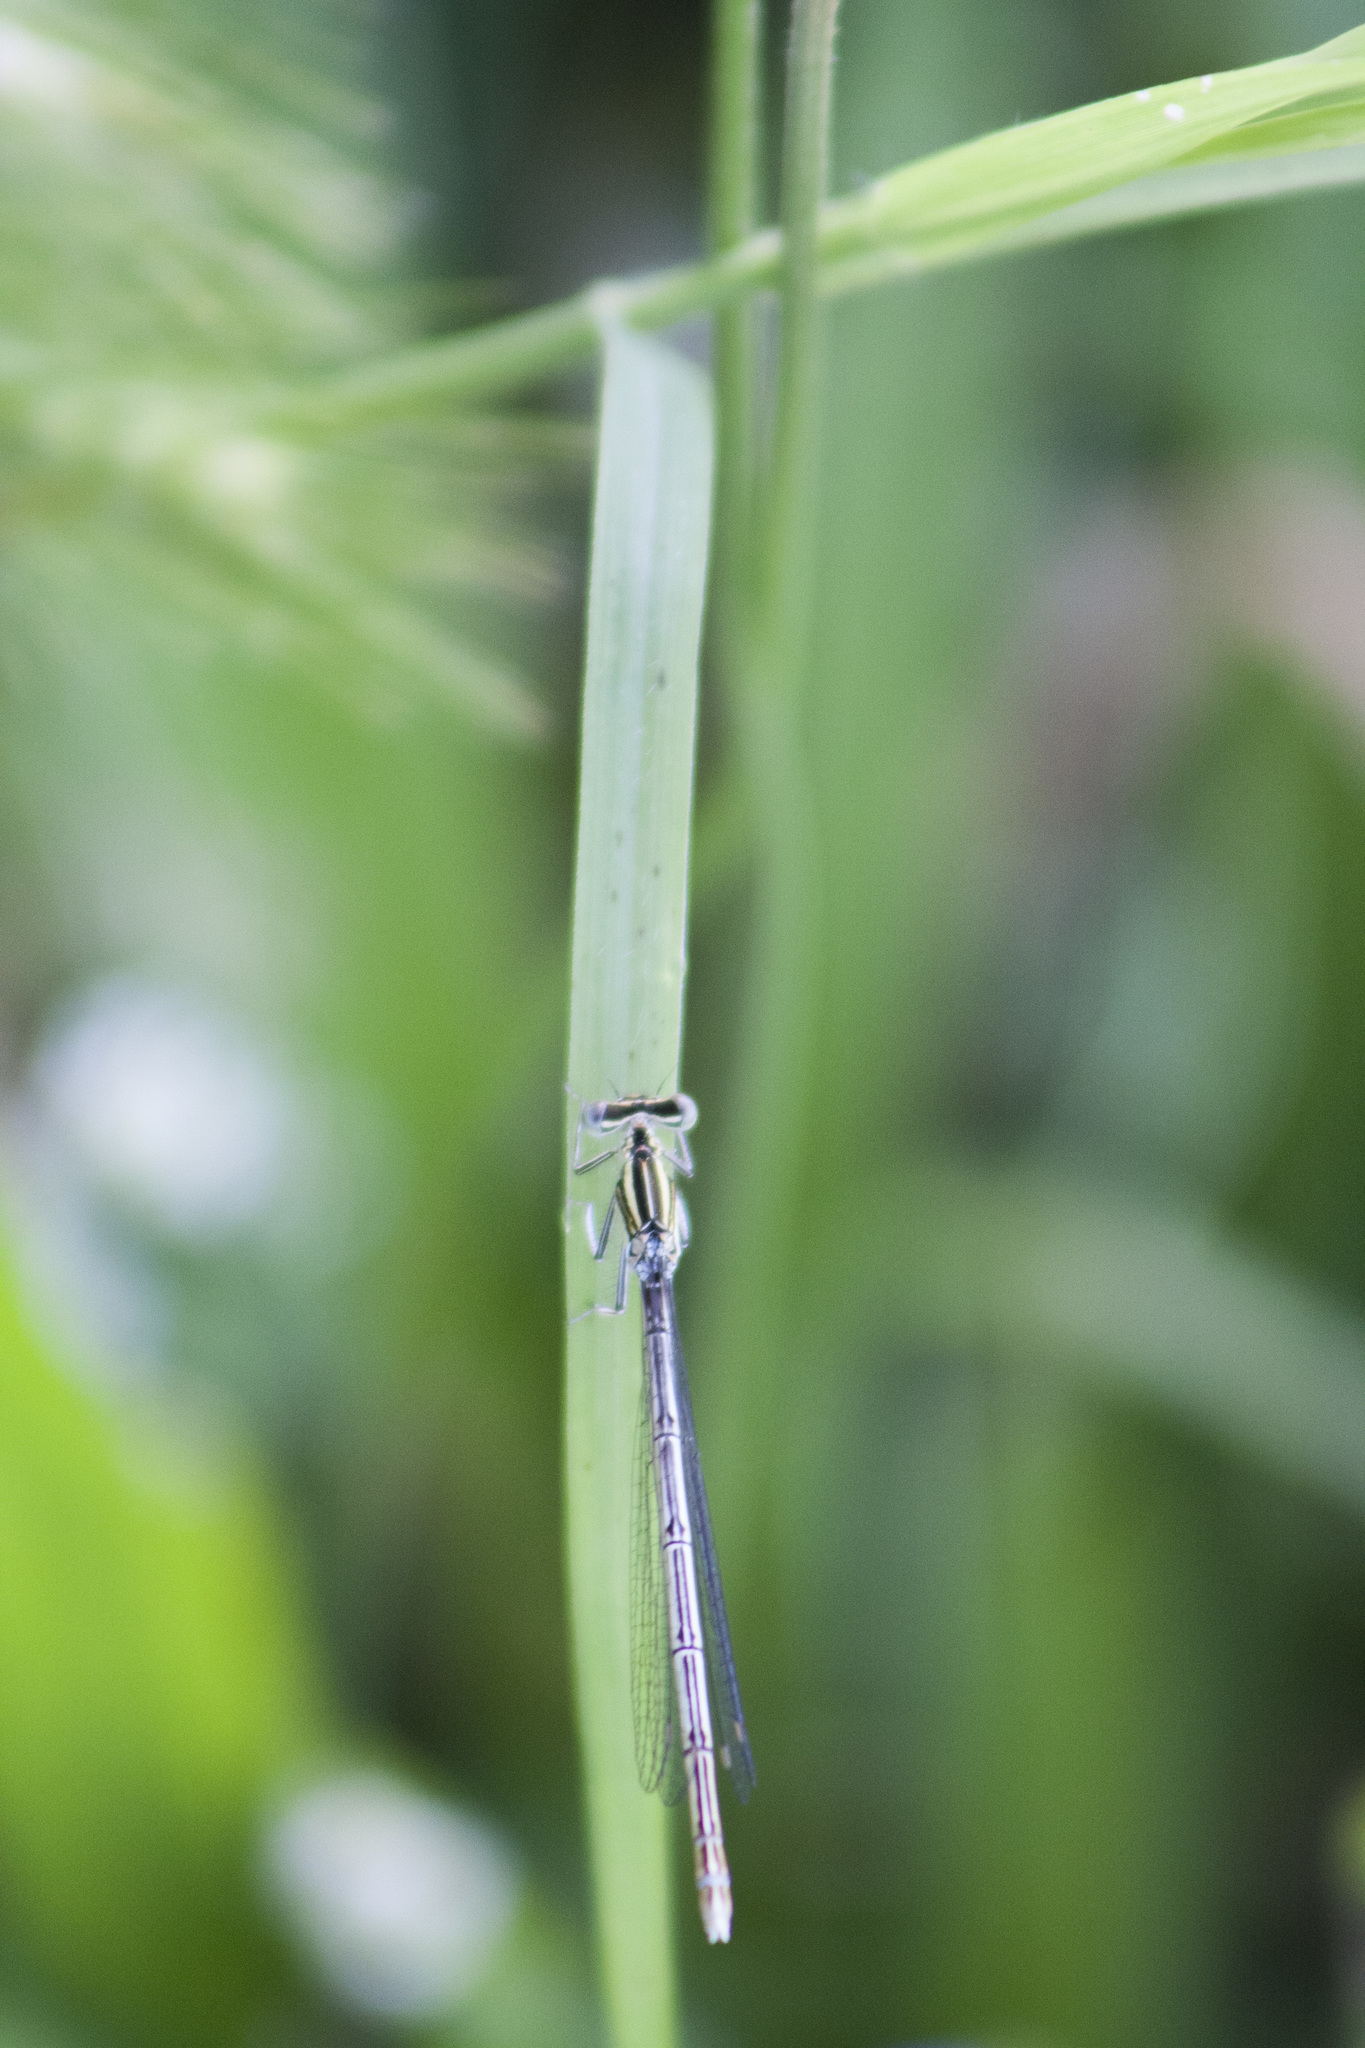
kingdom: Animalia
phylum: Arthropoda
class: Insecta
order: Odonata
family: Platycnemididae
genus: Platycnemis
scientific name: Platycnemis pennipes
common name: White-legged damselfly
